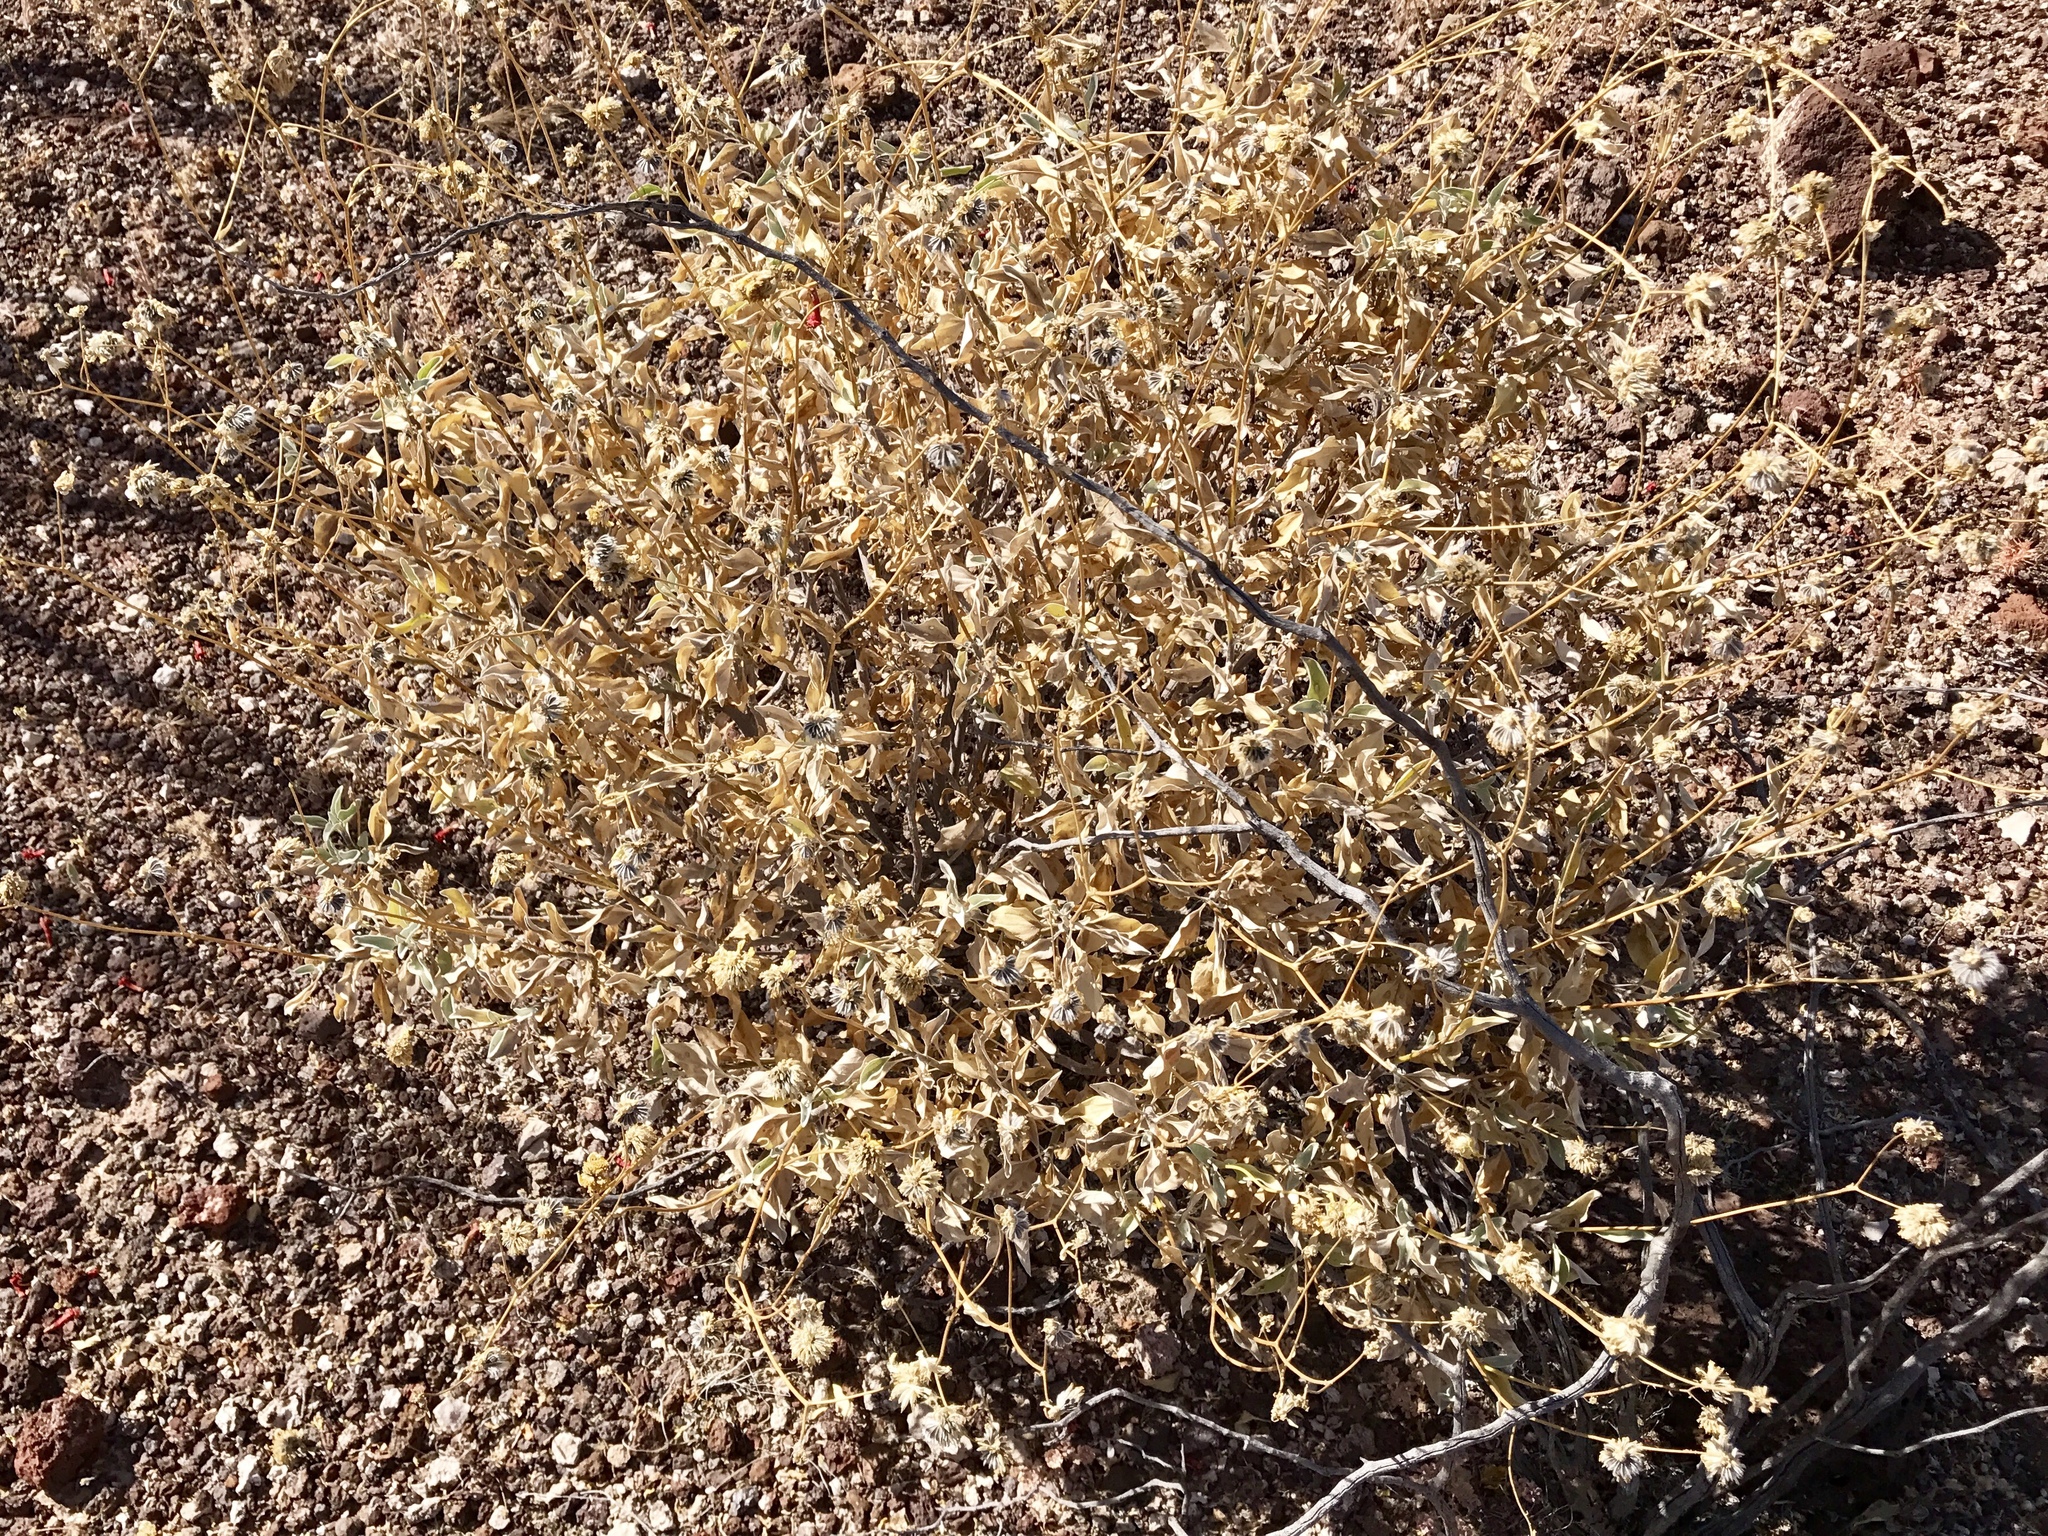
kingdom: Plantae
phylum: Tracheophyta
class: Magnoliopsida
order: Asterales
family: Asteraceae
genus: Encelia
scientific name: Encelia farinosa
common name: Brittlebush
